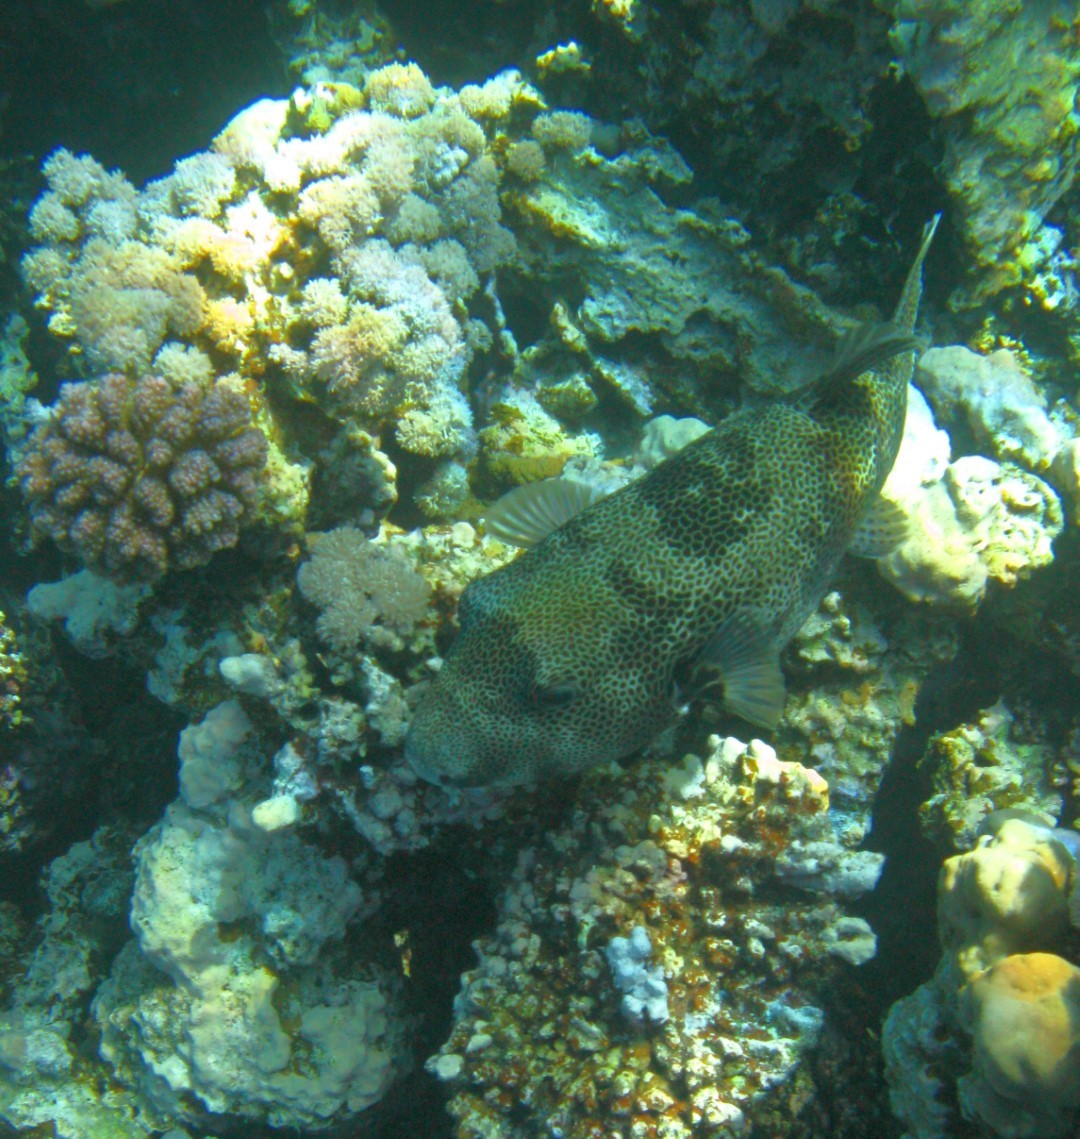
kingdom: Animalia
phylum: Chordata
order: Tetraodontiformes
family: Tetraodontidae
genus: Arothron
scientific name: Arothron stellatus
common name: Star blaasop
